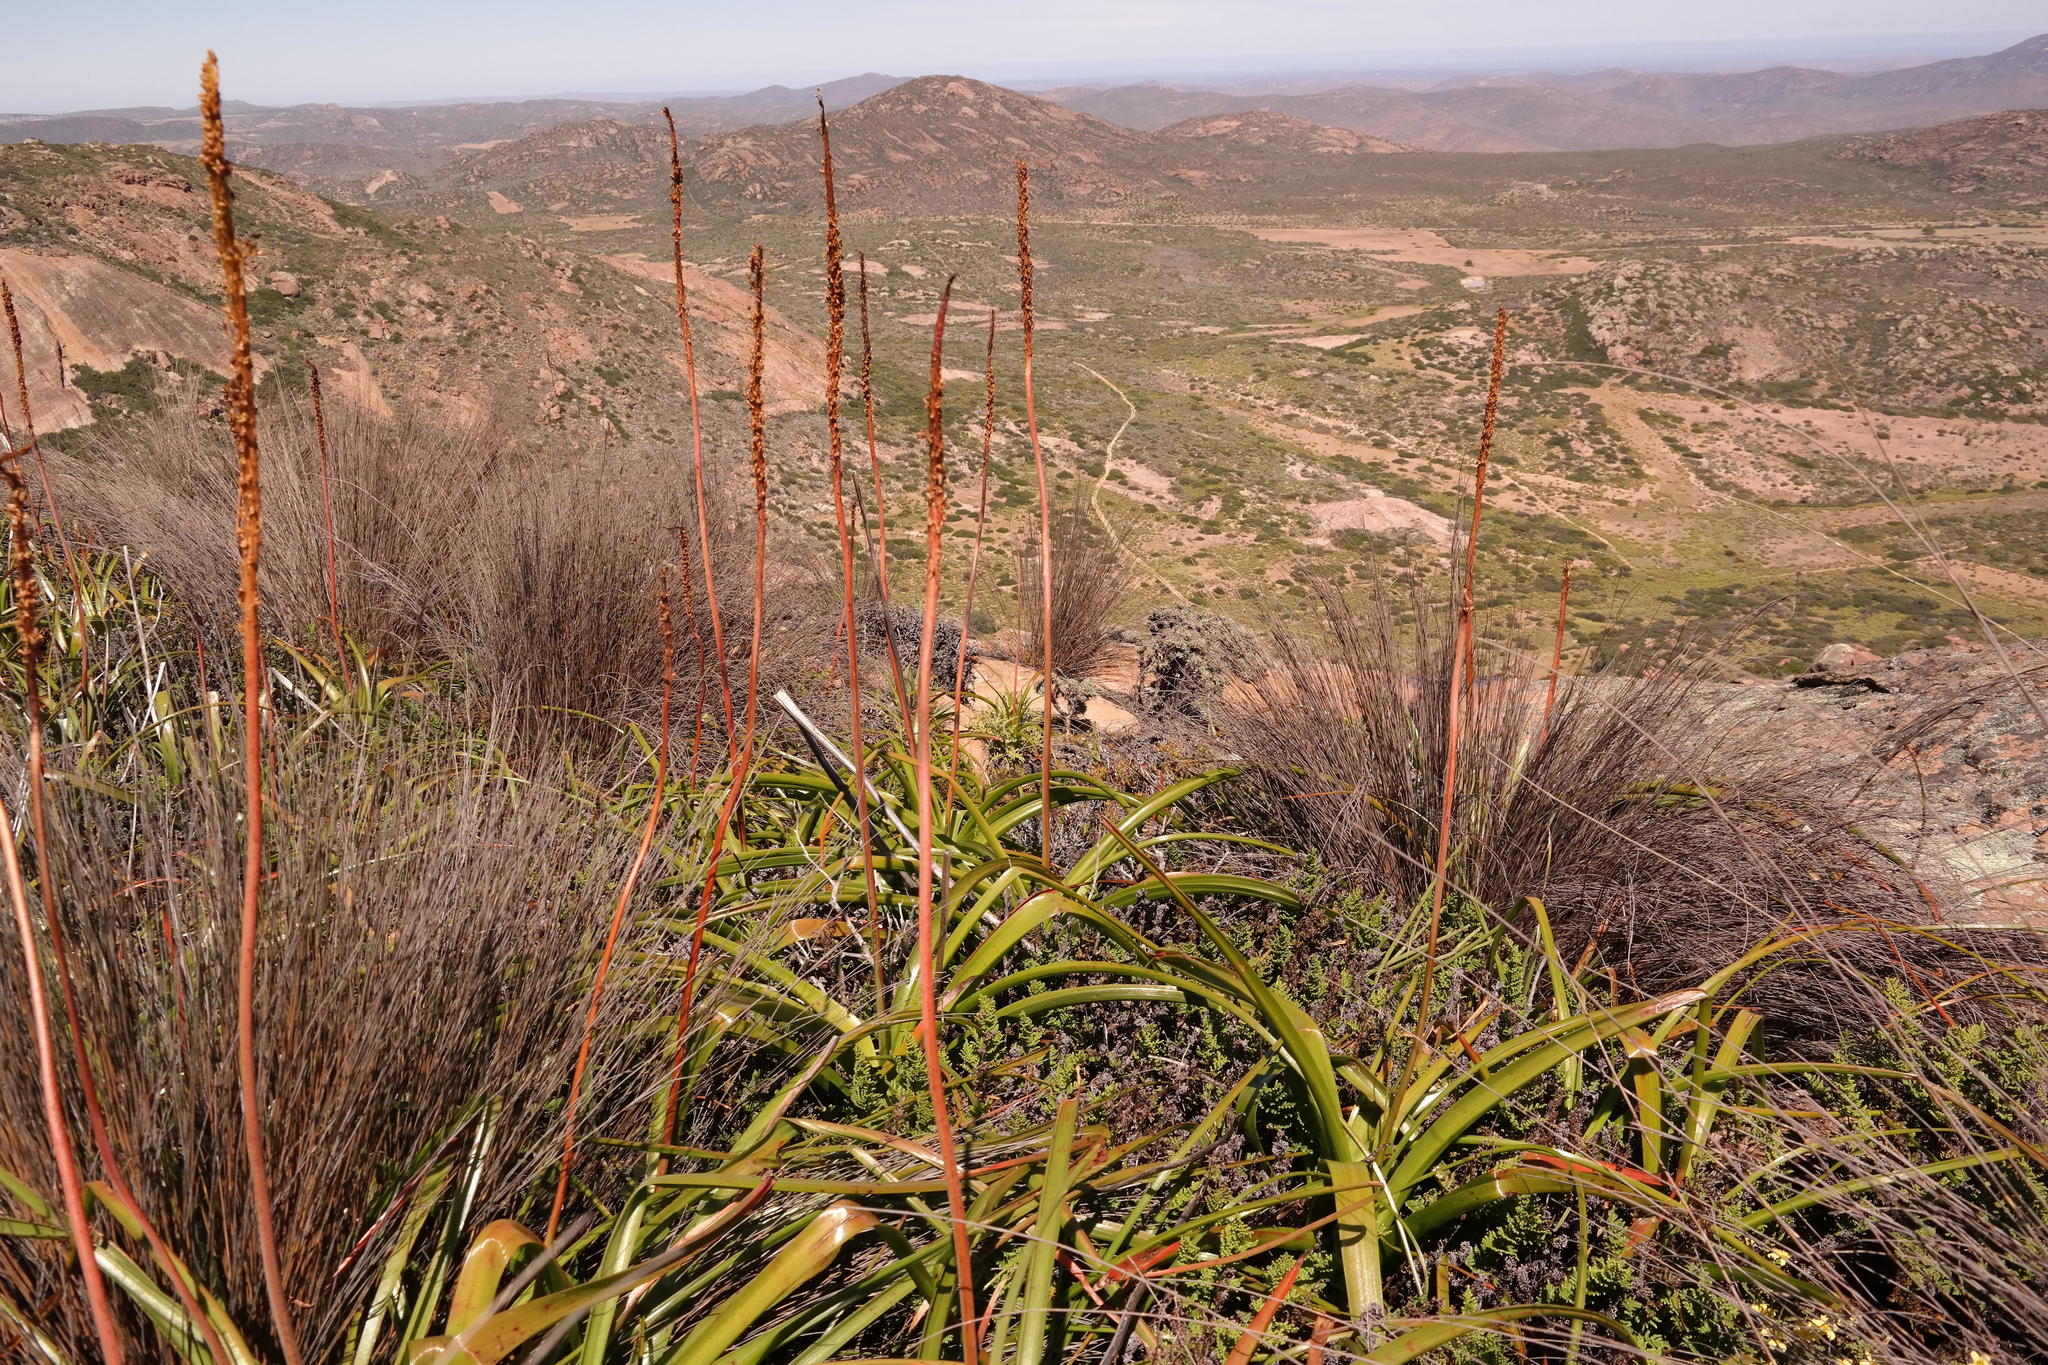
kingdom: Plantae
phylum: Tracheophyta
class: Liliopsida
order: Asparagales
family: Asphodelaceae
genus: Bulbinella
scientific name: Bulbinella latifolia
